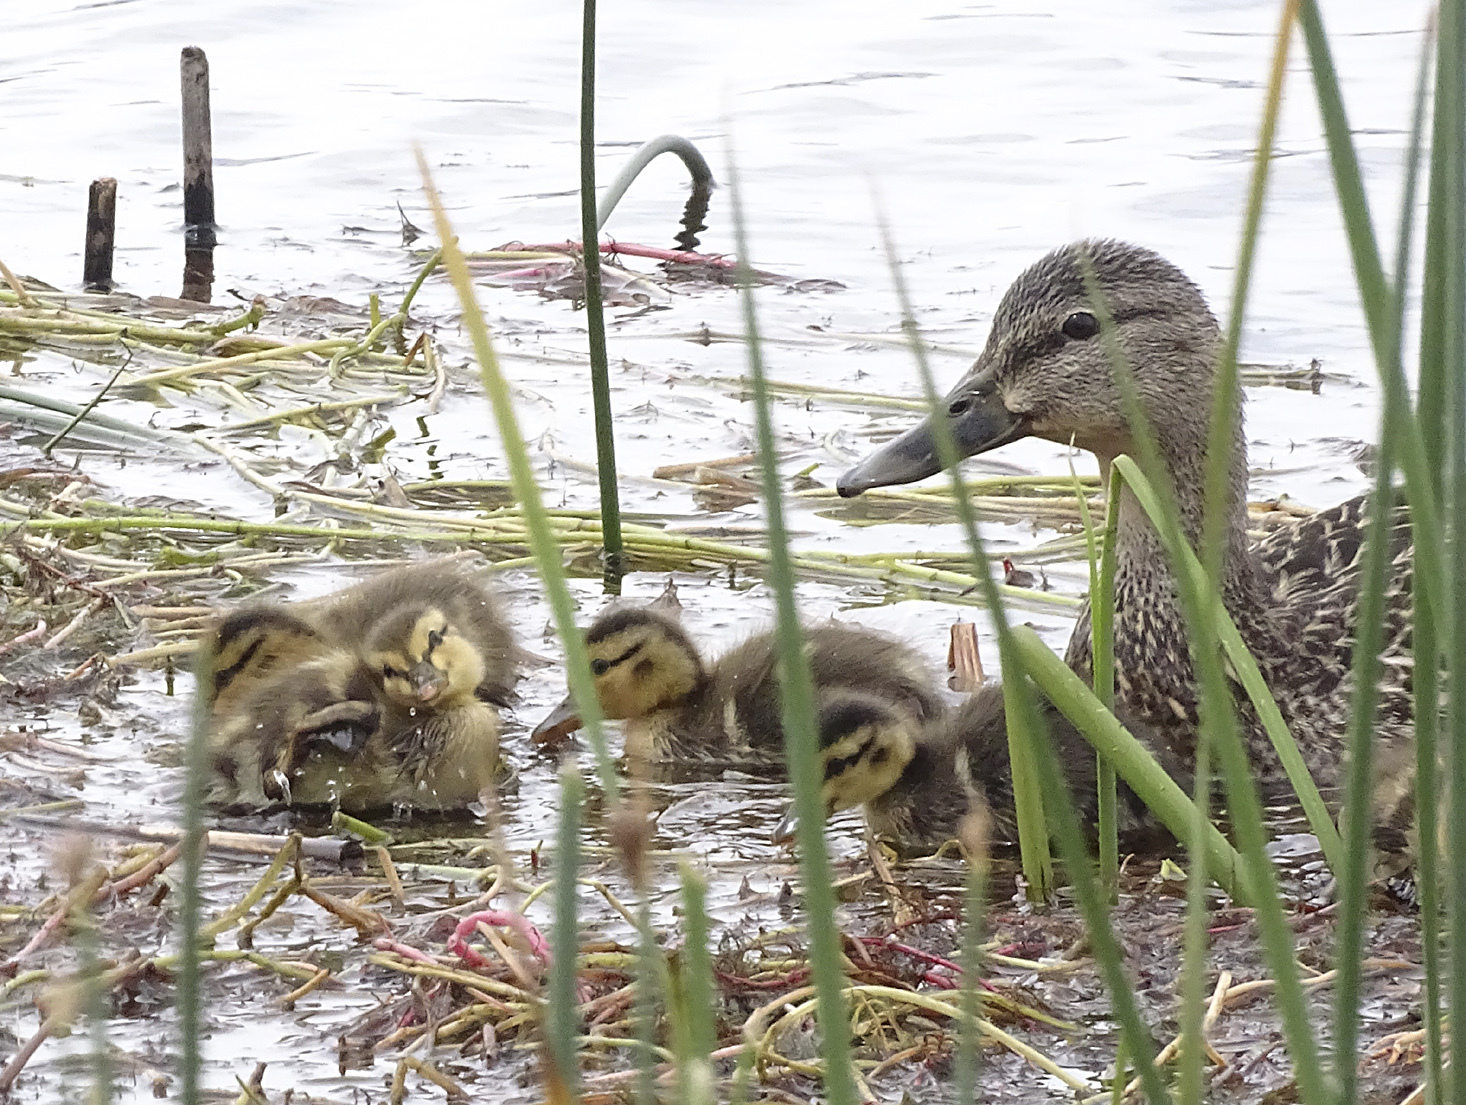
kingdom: Animalia
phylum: Chordata
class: Aves
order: Anseriformes
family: Anatidae
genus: Anas
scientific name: Anas platyrhynchos
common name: Mallard
